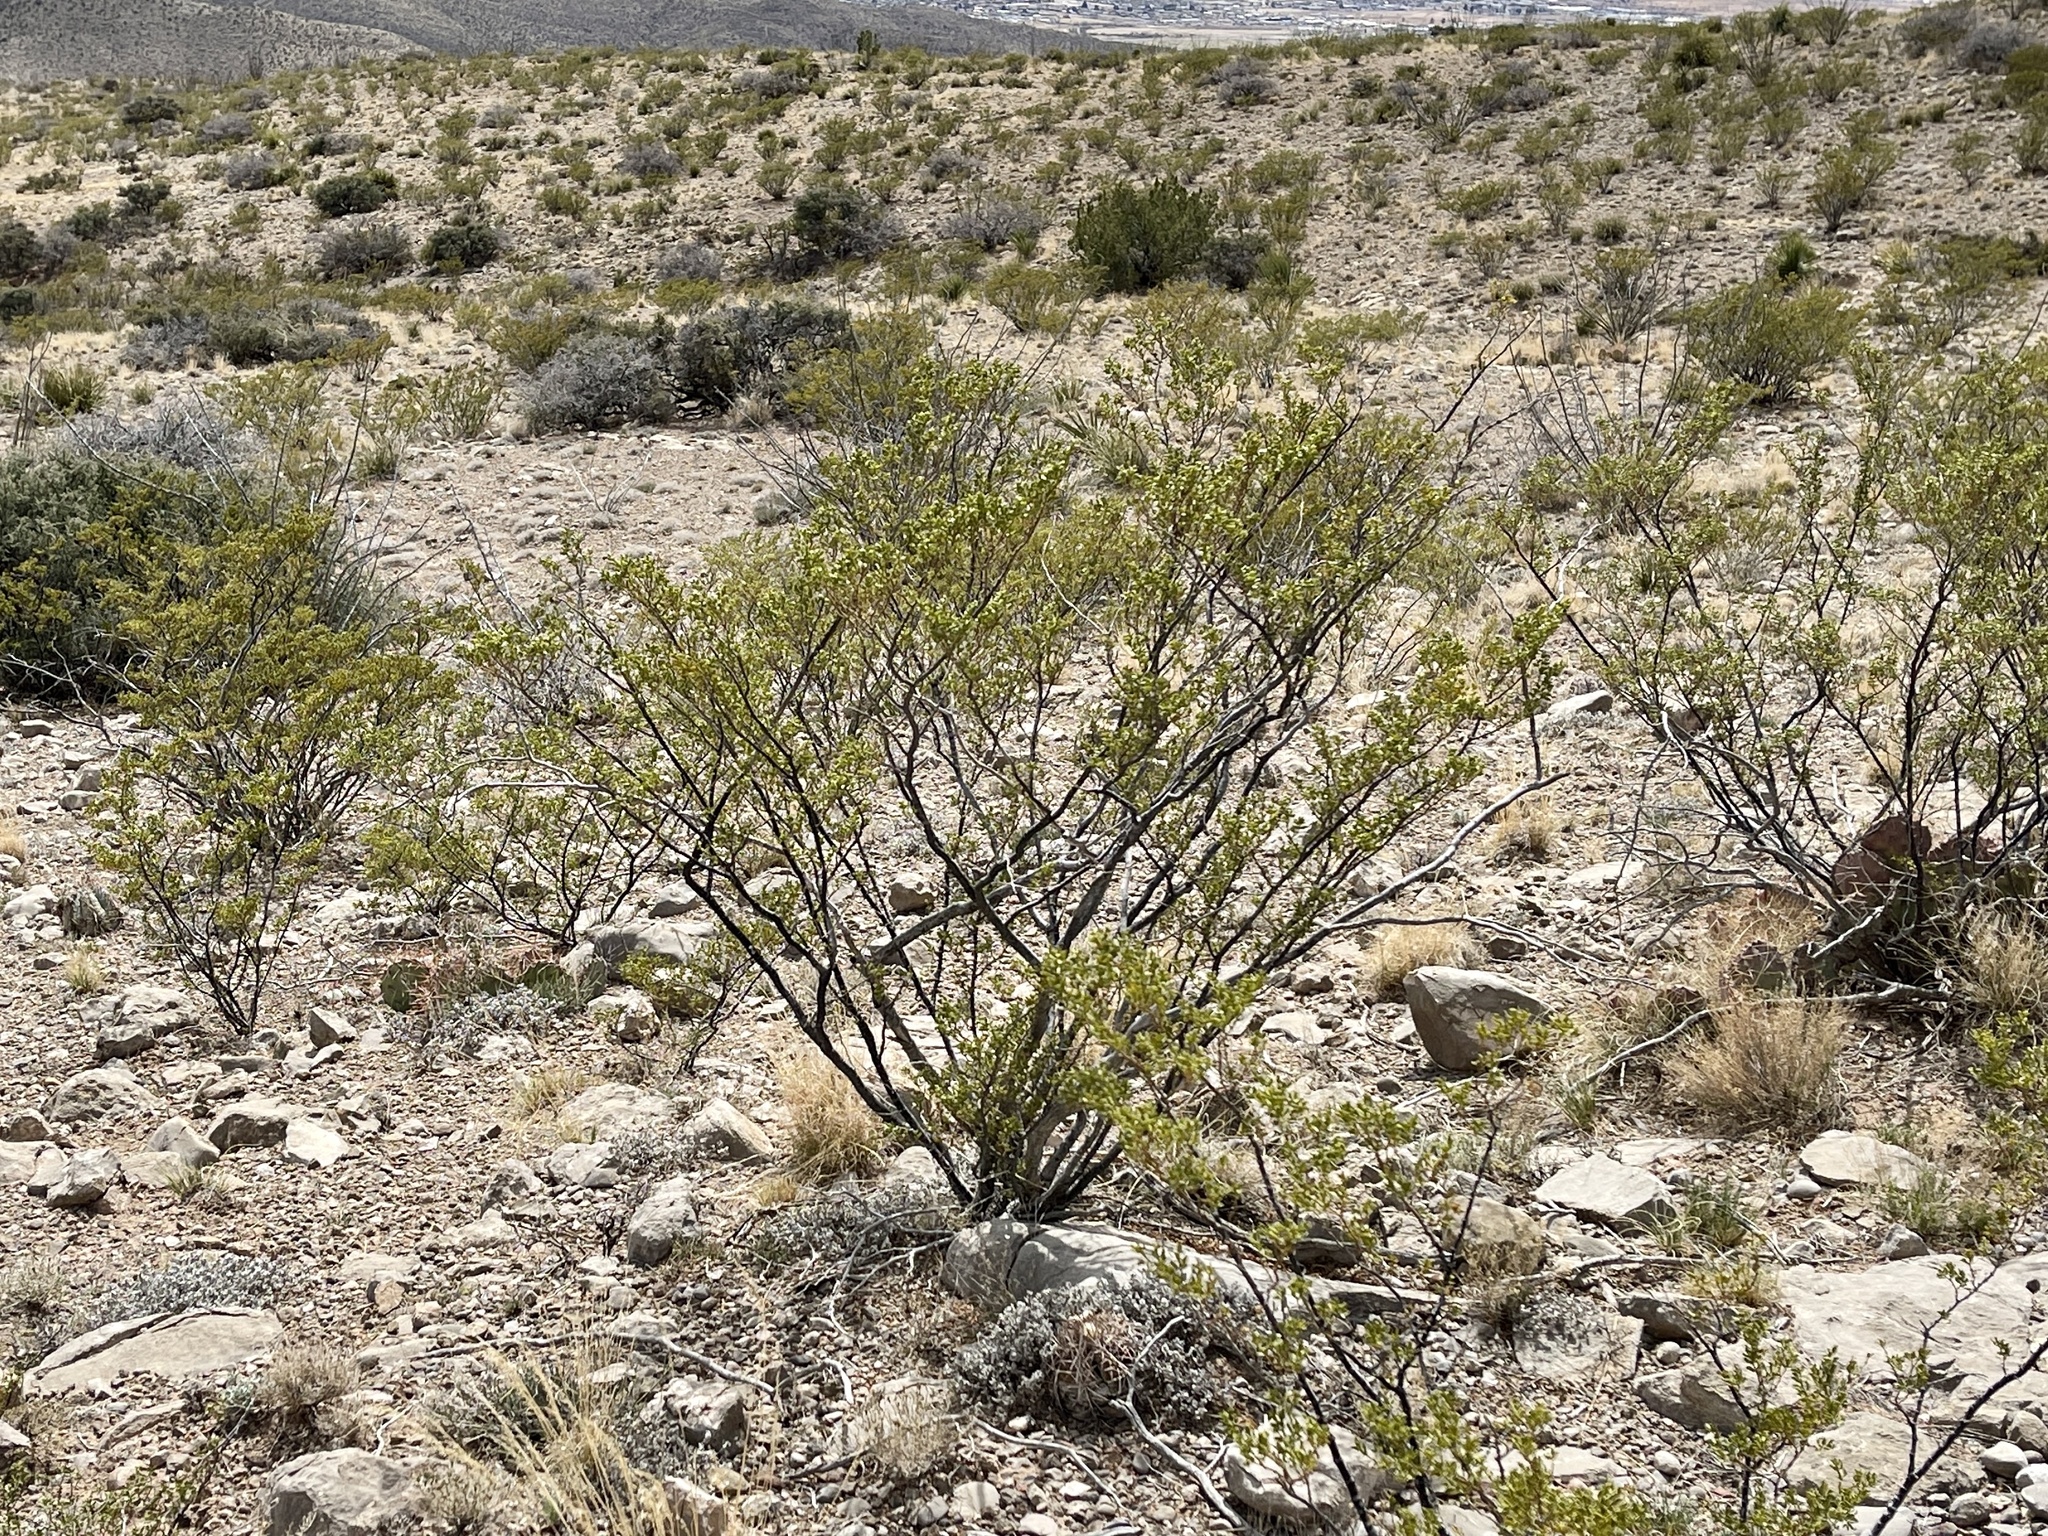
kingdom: Plantae
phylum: Tracheophyta
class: Magnoliopsida
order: Zygophyllales
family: Zygophyllaceae
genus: Larrea
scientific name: Larrea tridentata
